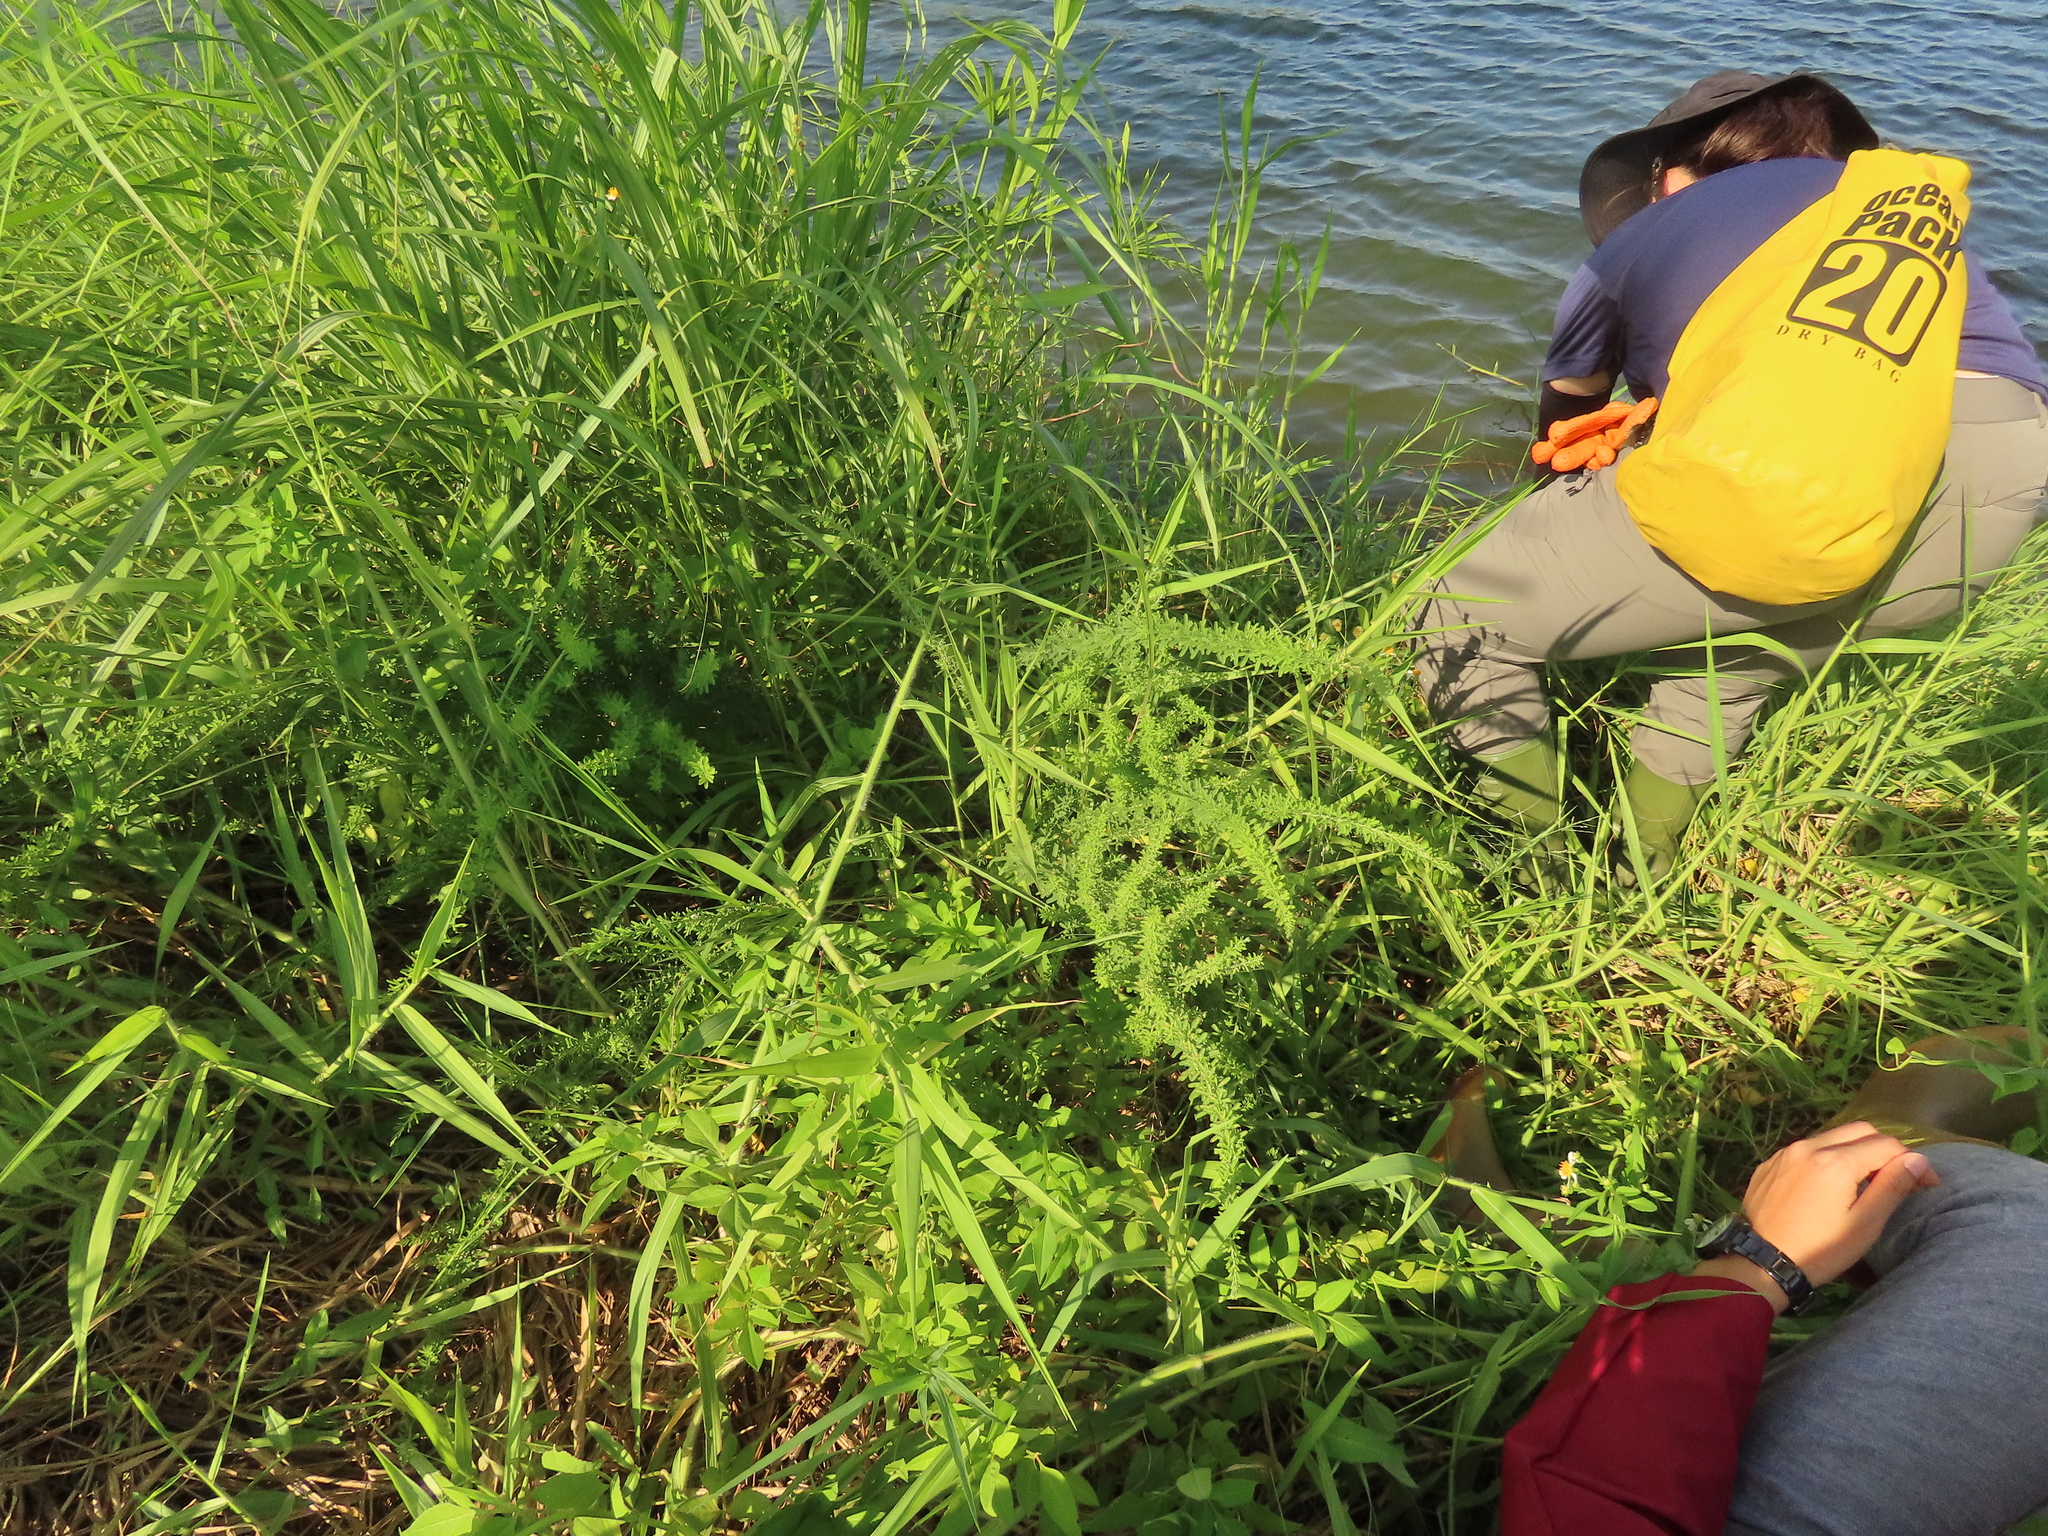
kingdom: Plantae
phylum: Tracheophyta
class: Magnoliopsida
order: Fabales
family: Fabaceae
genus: Lespedeza
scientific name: Lespedeza cuneata
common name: Chinese bush-clover
